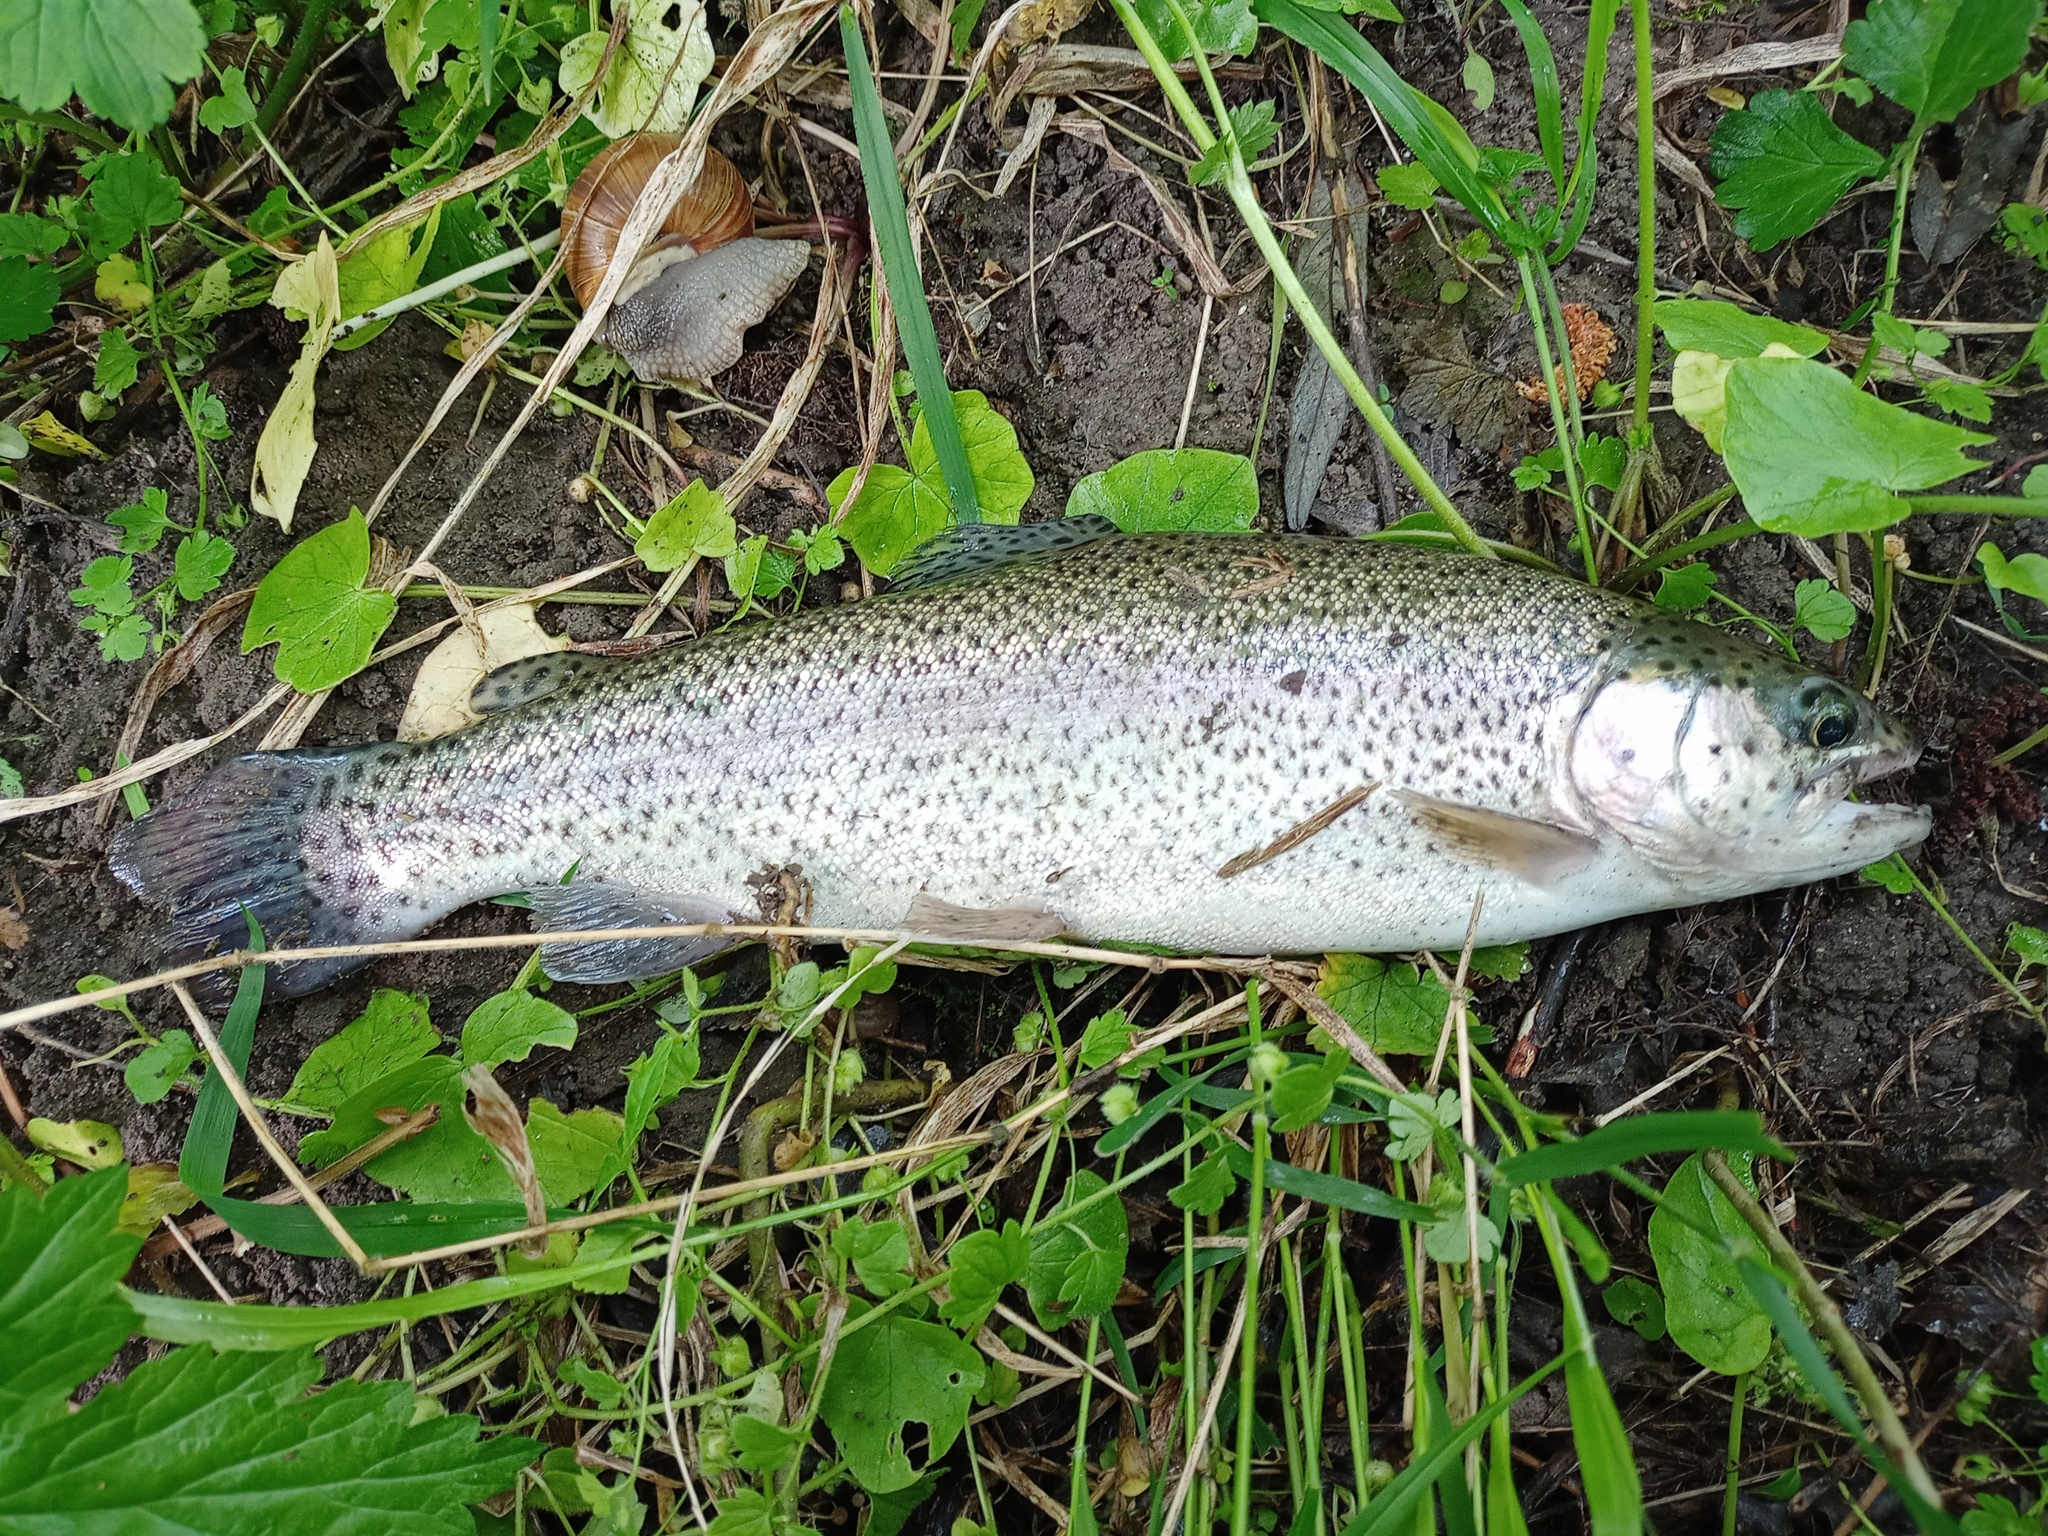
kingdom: Animalia
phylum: Chordata
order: Salmoniformes
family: Salmonidae
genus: Oncorhynchus
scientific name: Oncorhynchus mykiss
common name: Rainbow trout
